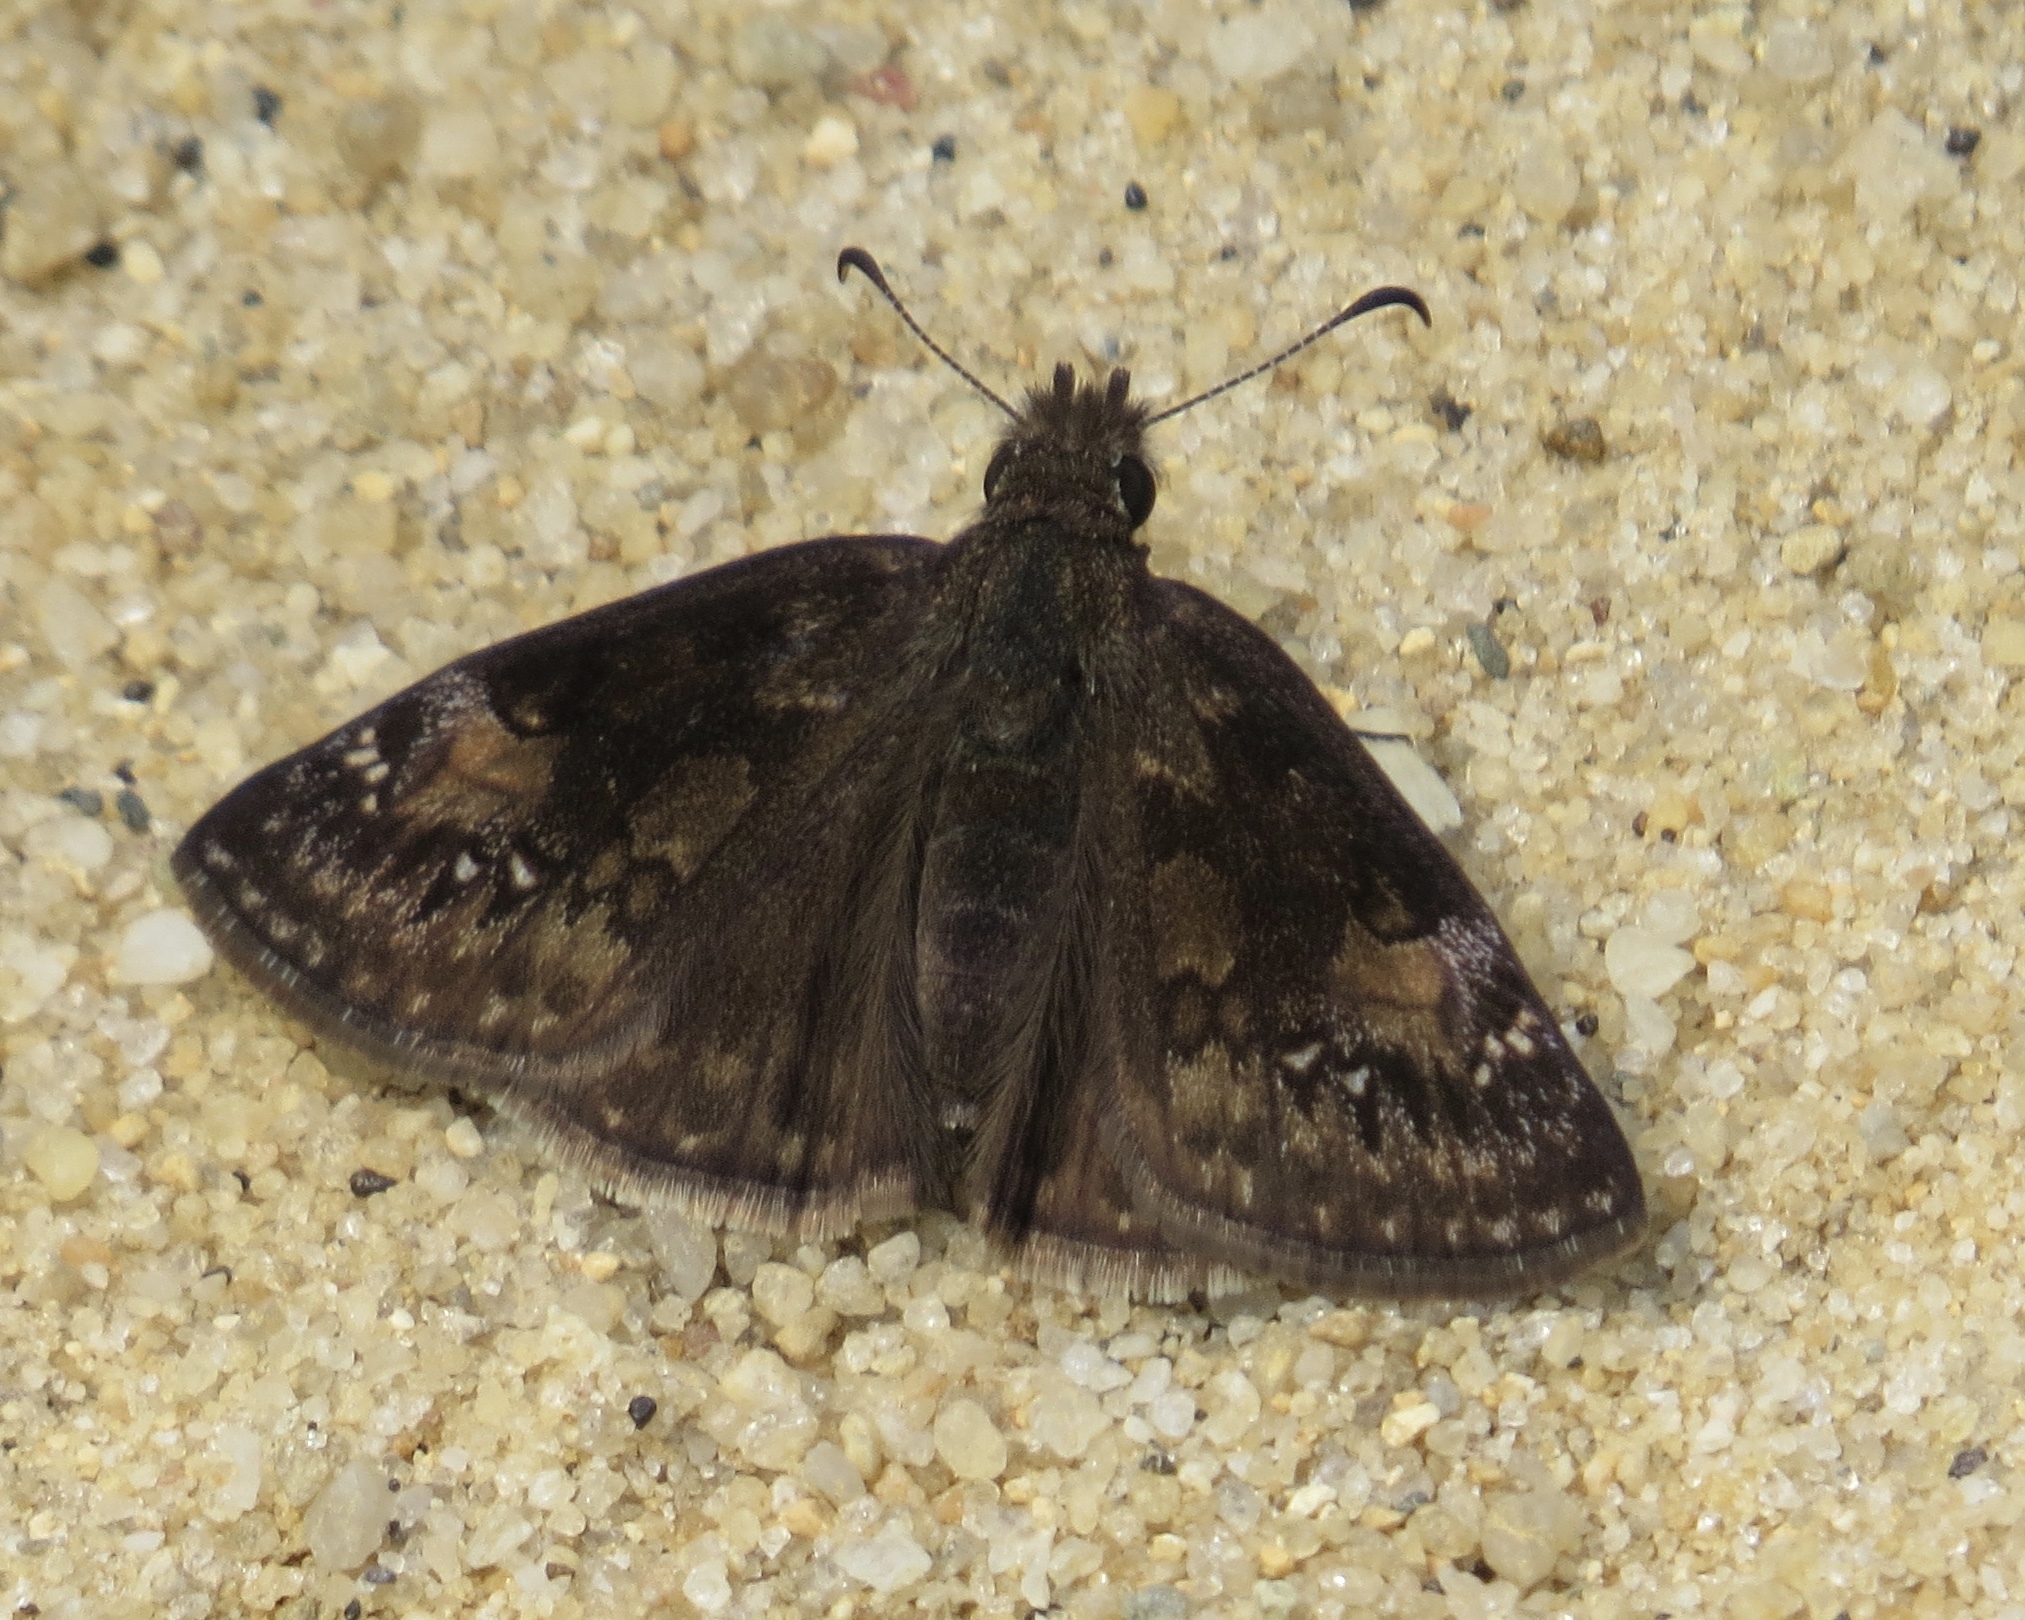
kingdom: Animalia
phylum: Arthropoda
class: Insecta
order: Lepidoptera
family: Hesperiidae
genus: Erynnis
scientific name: Erynnis baptisiae
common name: Wild indigo duskywing
